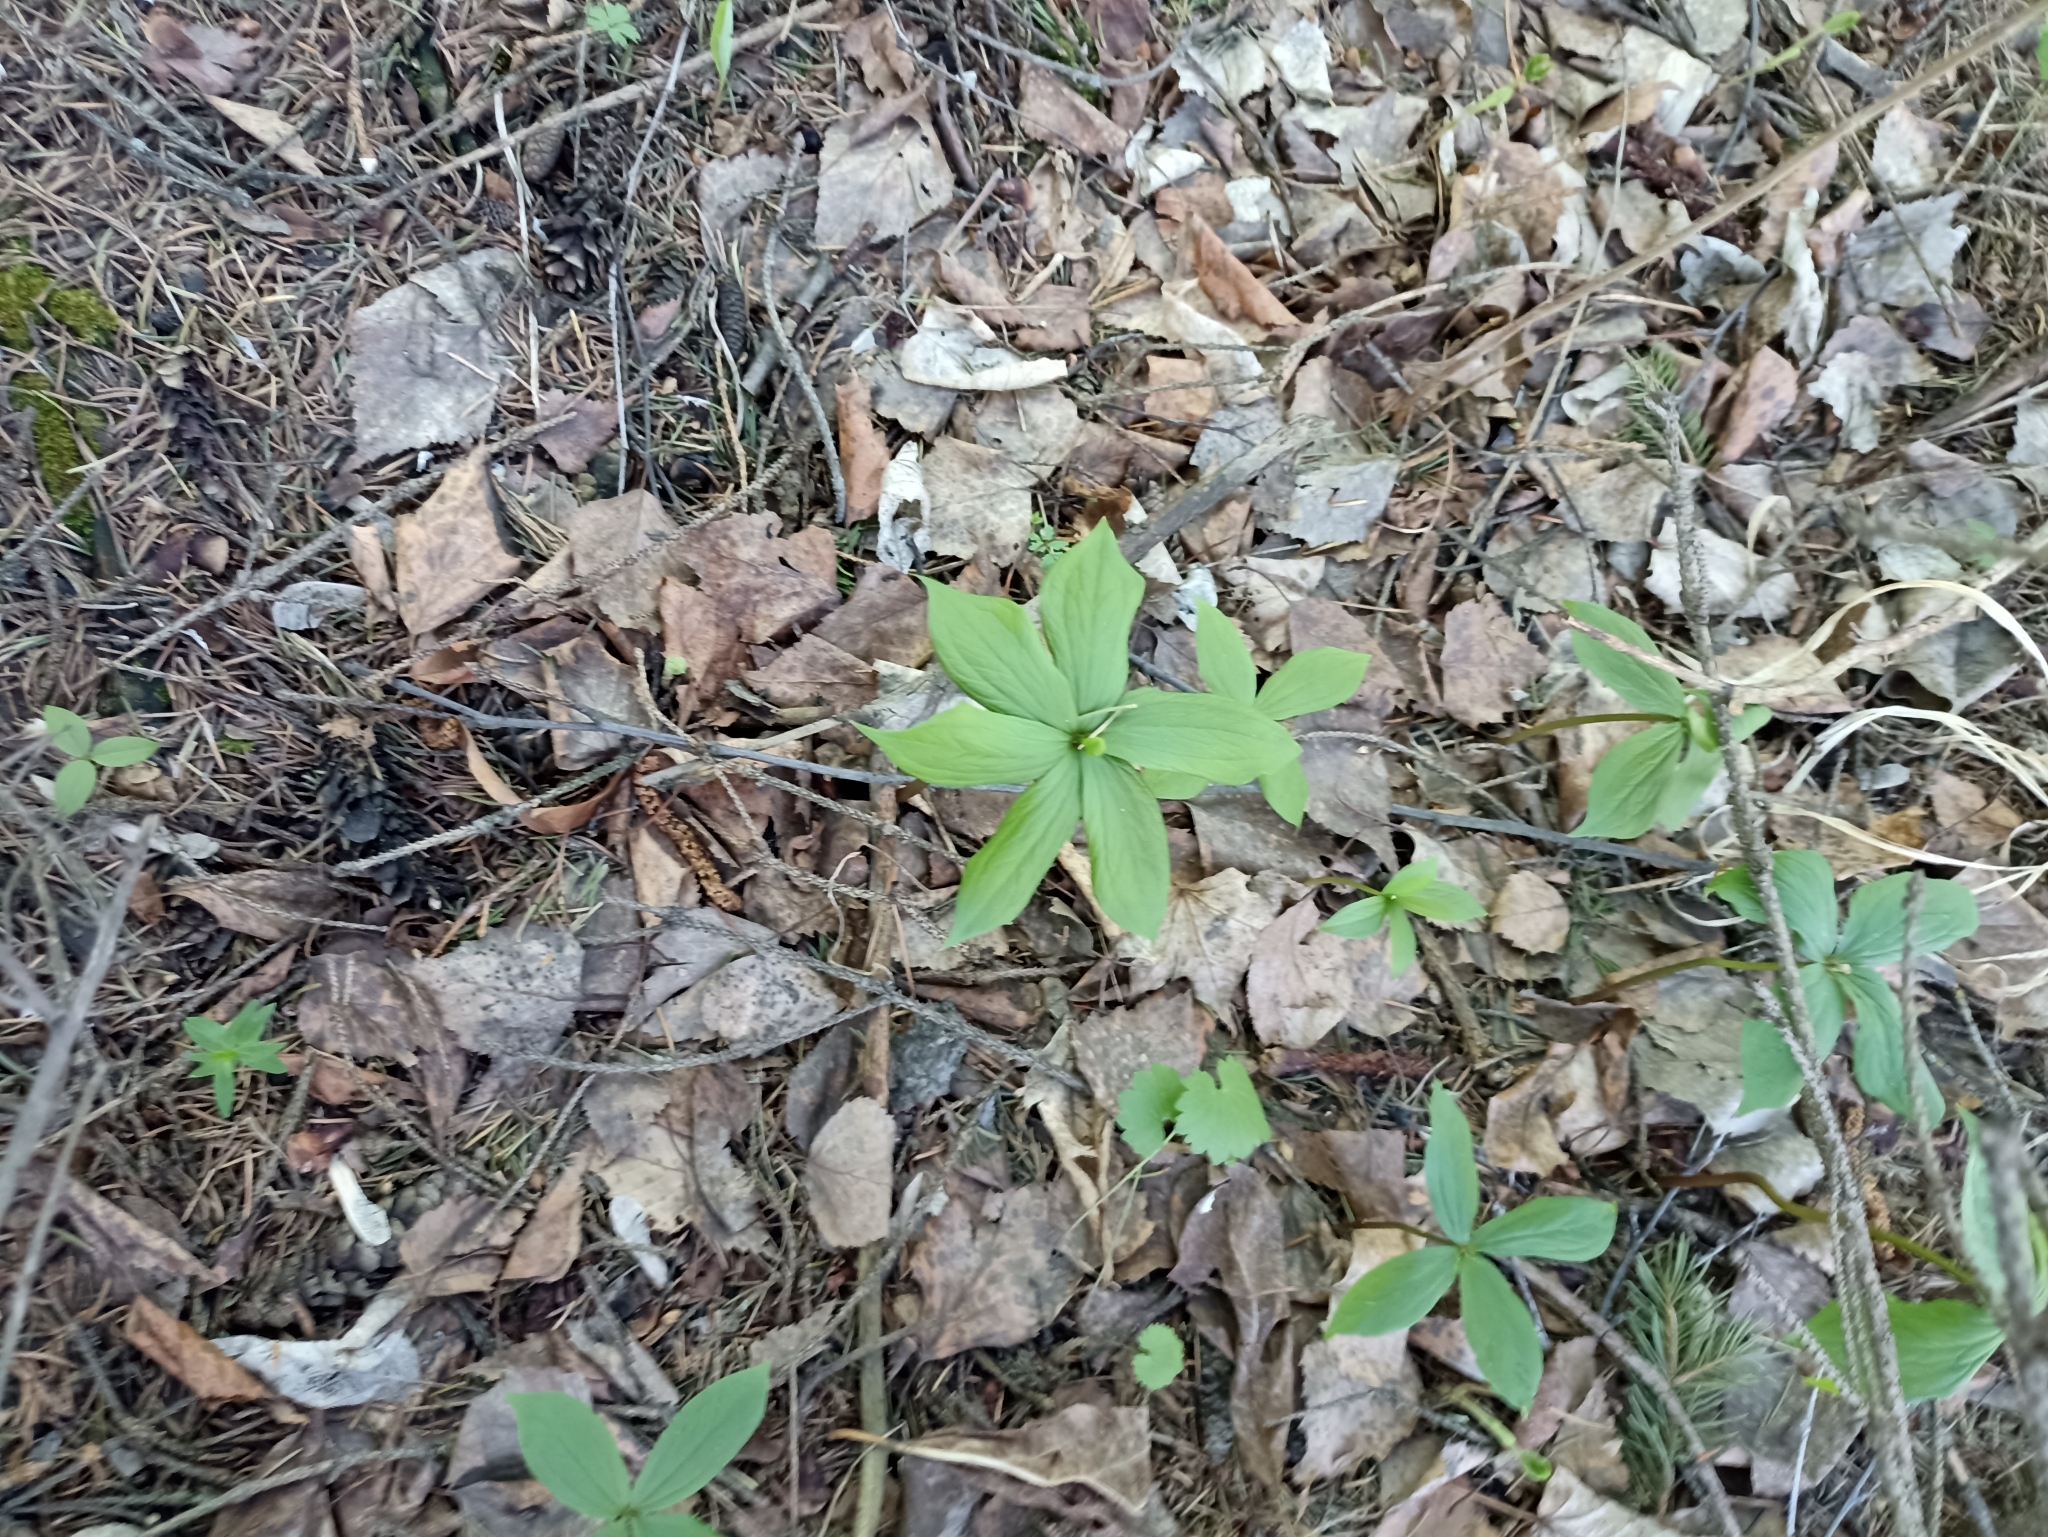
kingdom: Plantae
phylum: Tracheophyta
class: Liliopsida
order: Liliales
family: Melanthiaceae
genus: Paris
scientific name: Paris quadrifolia
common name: Herb-paris
